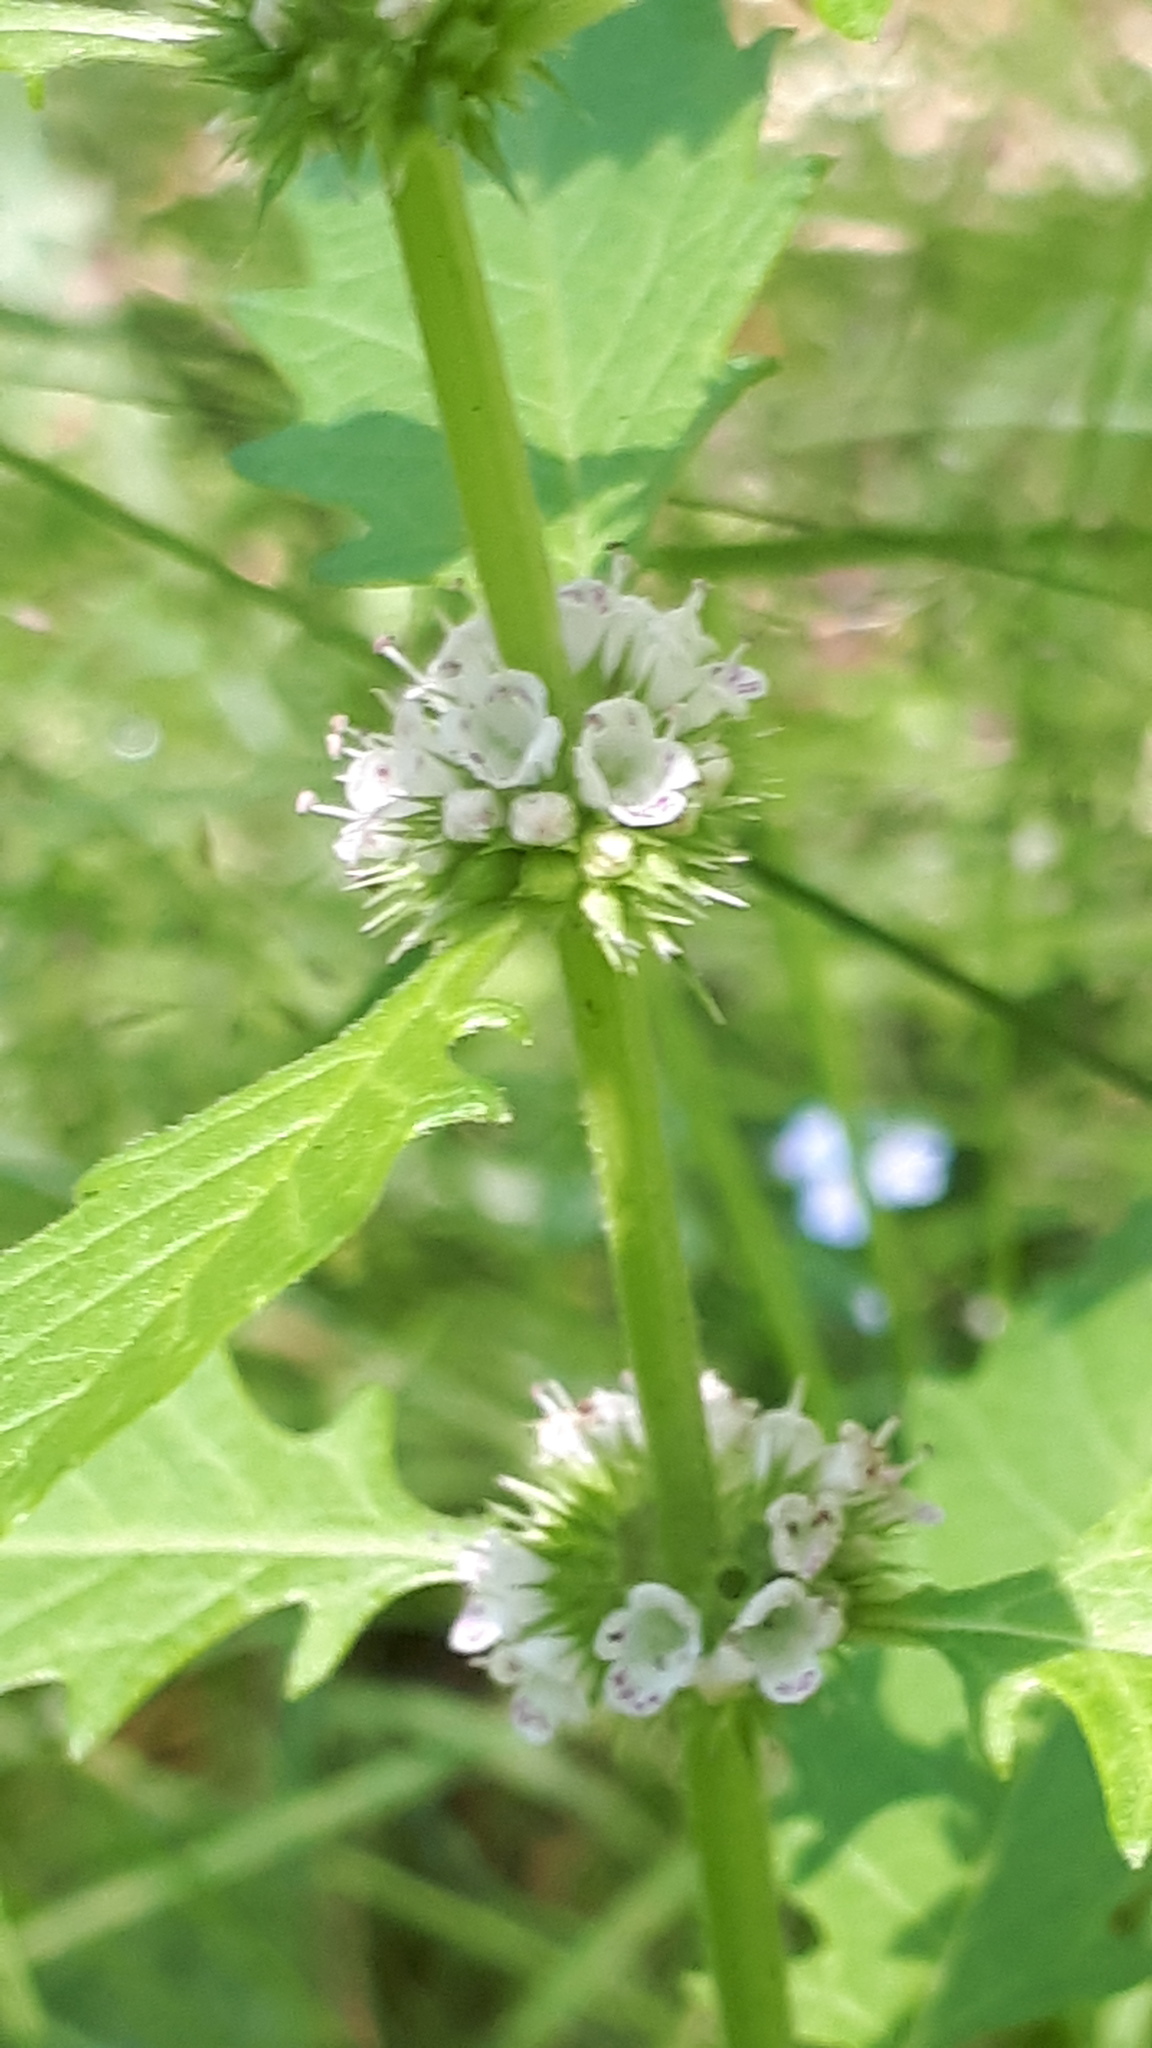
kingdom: Plantae
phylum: Tracheophyta
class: Magnoliopsida
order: Lamiales
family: Lamiaceae
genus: Lycopus
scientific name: Lycopus europaeus
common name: European bugleweed
